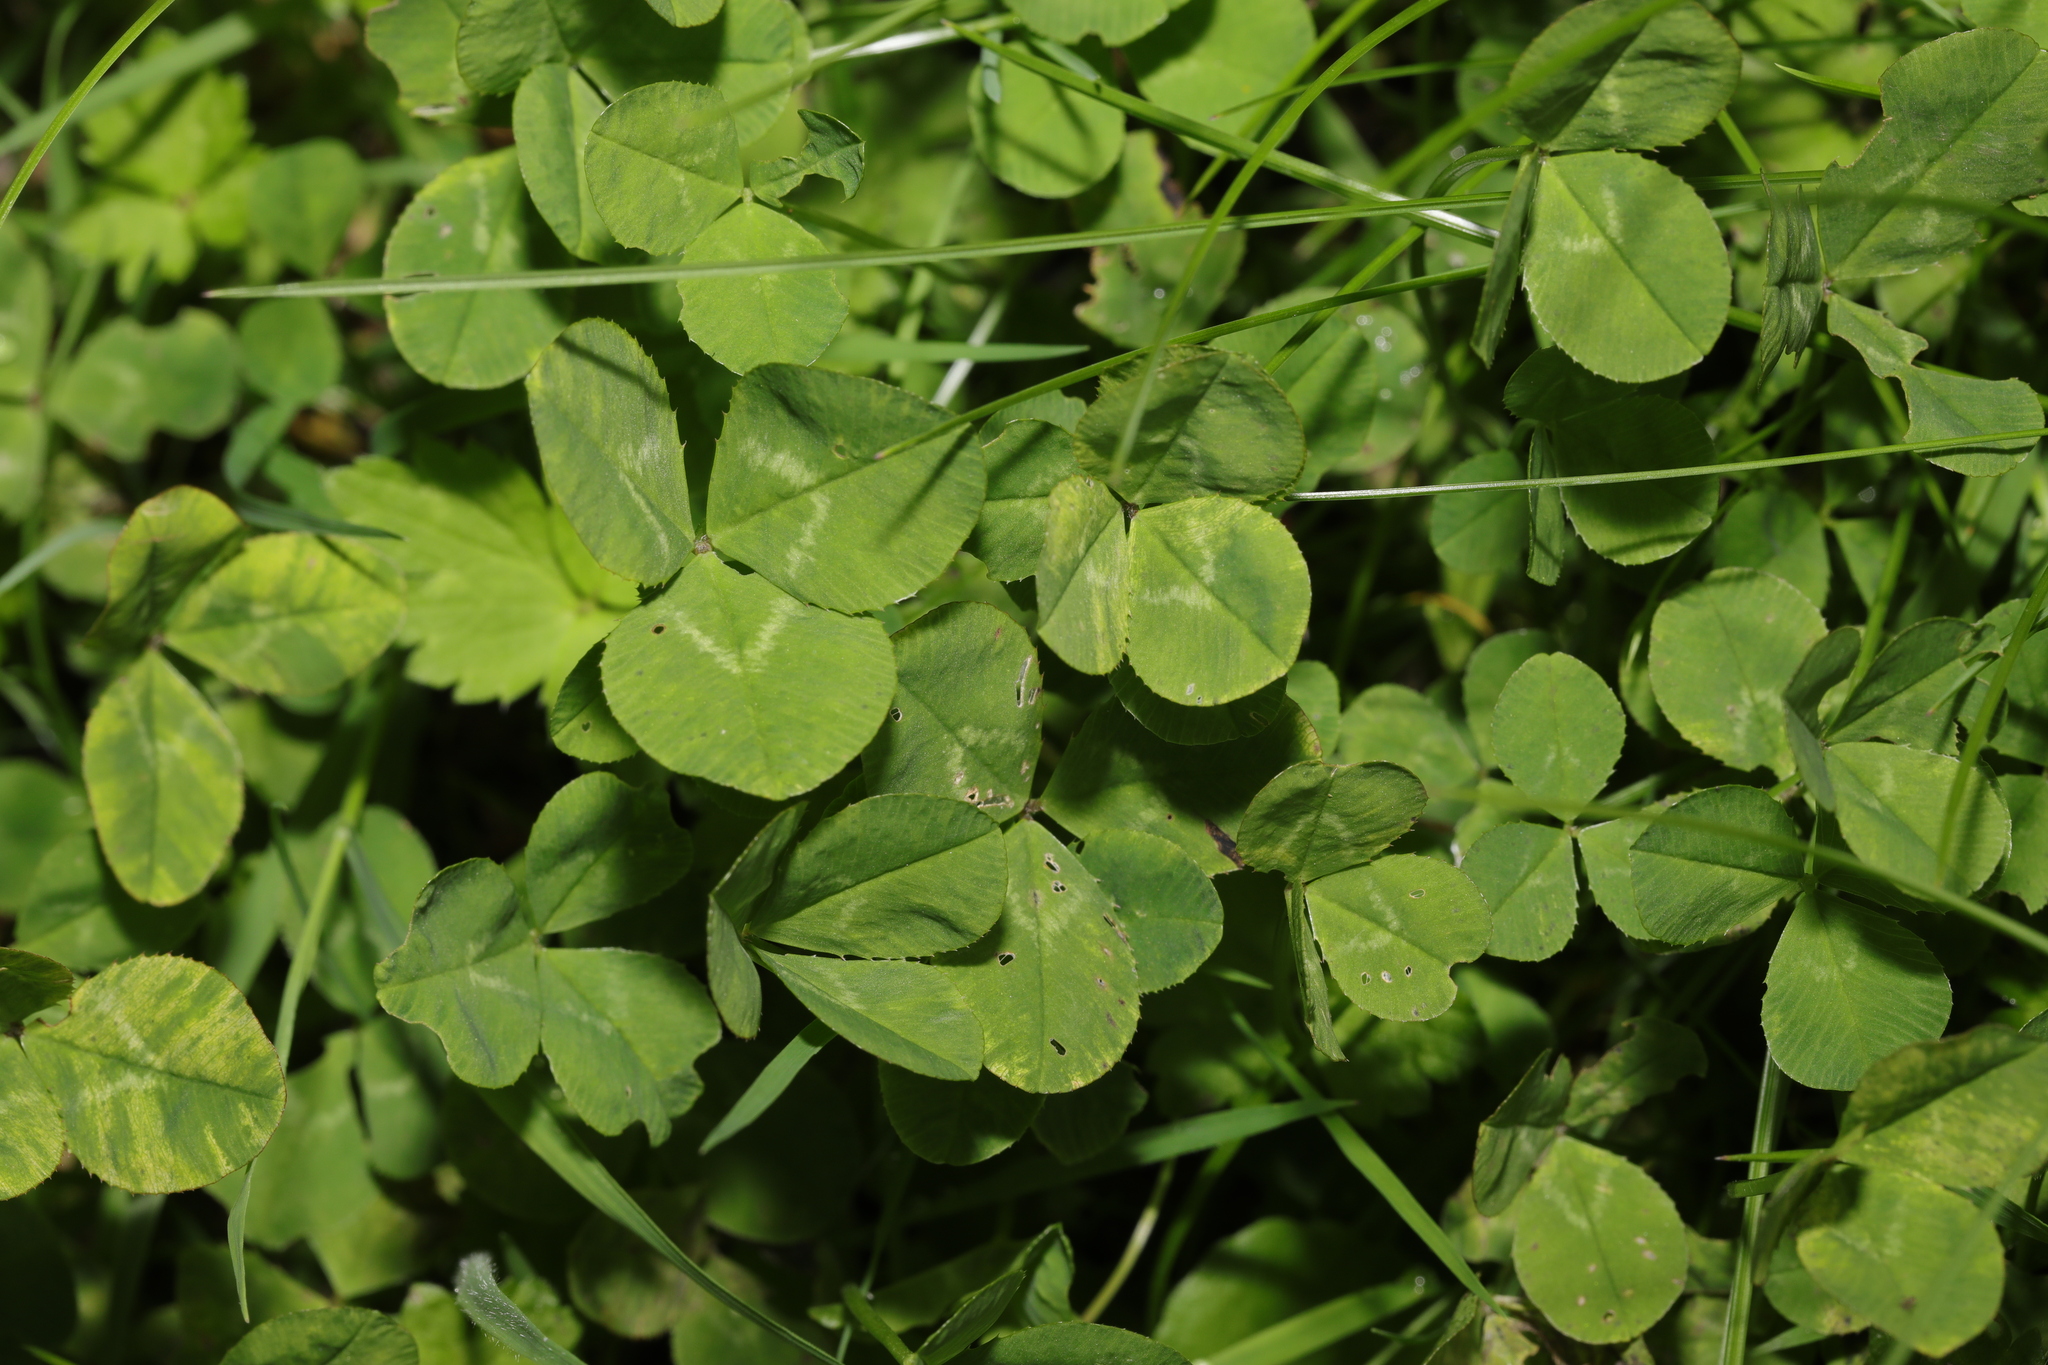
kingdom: Plantae
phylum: Tracheophyta
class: Magnoliopsida
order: Fabales
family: Fabaceae
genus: Trifolium
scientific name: Trifolium repens
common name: White clover
